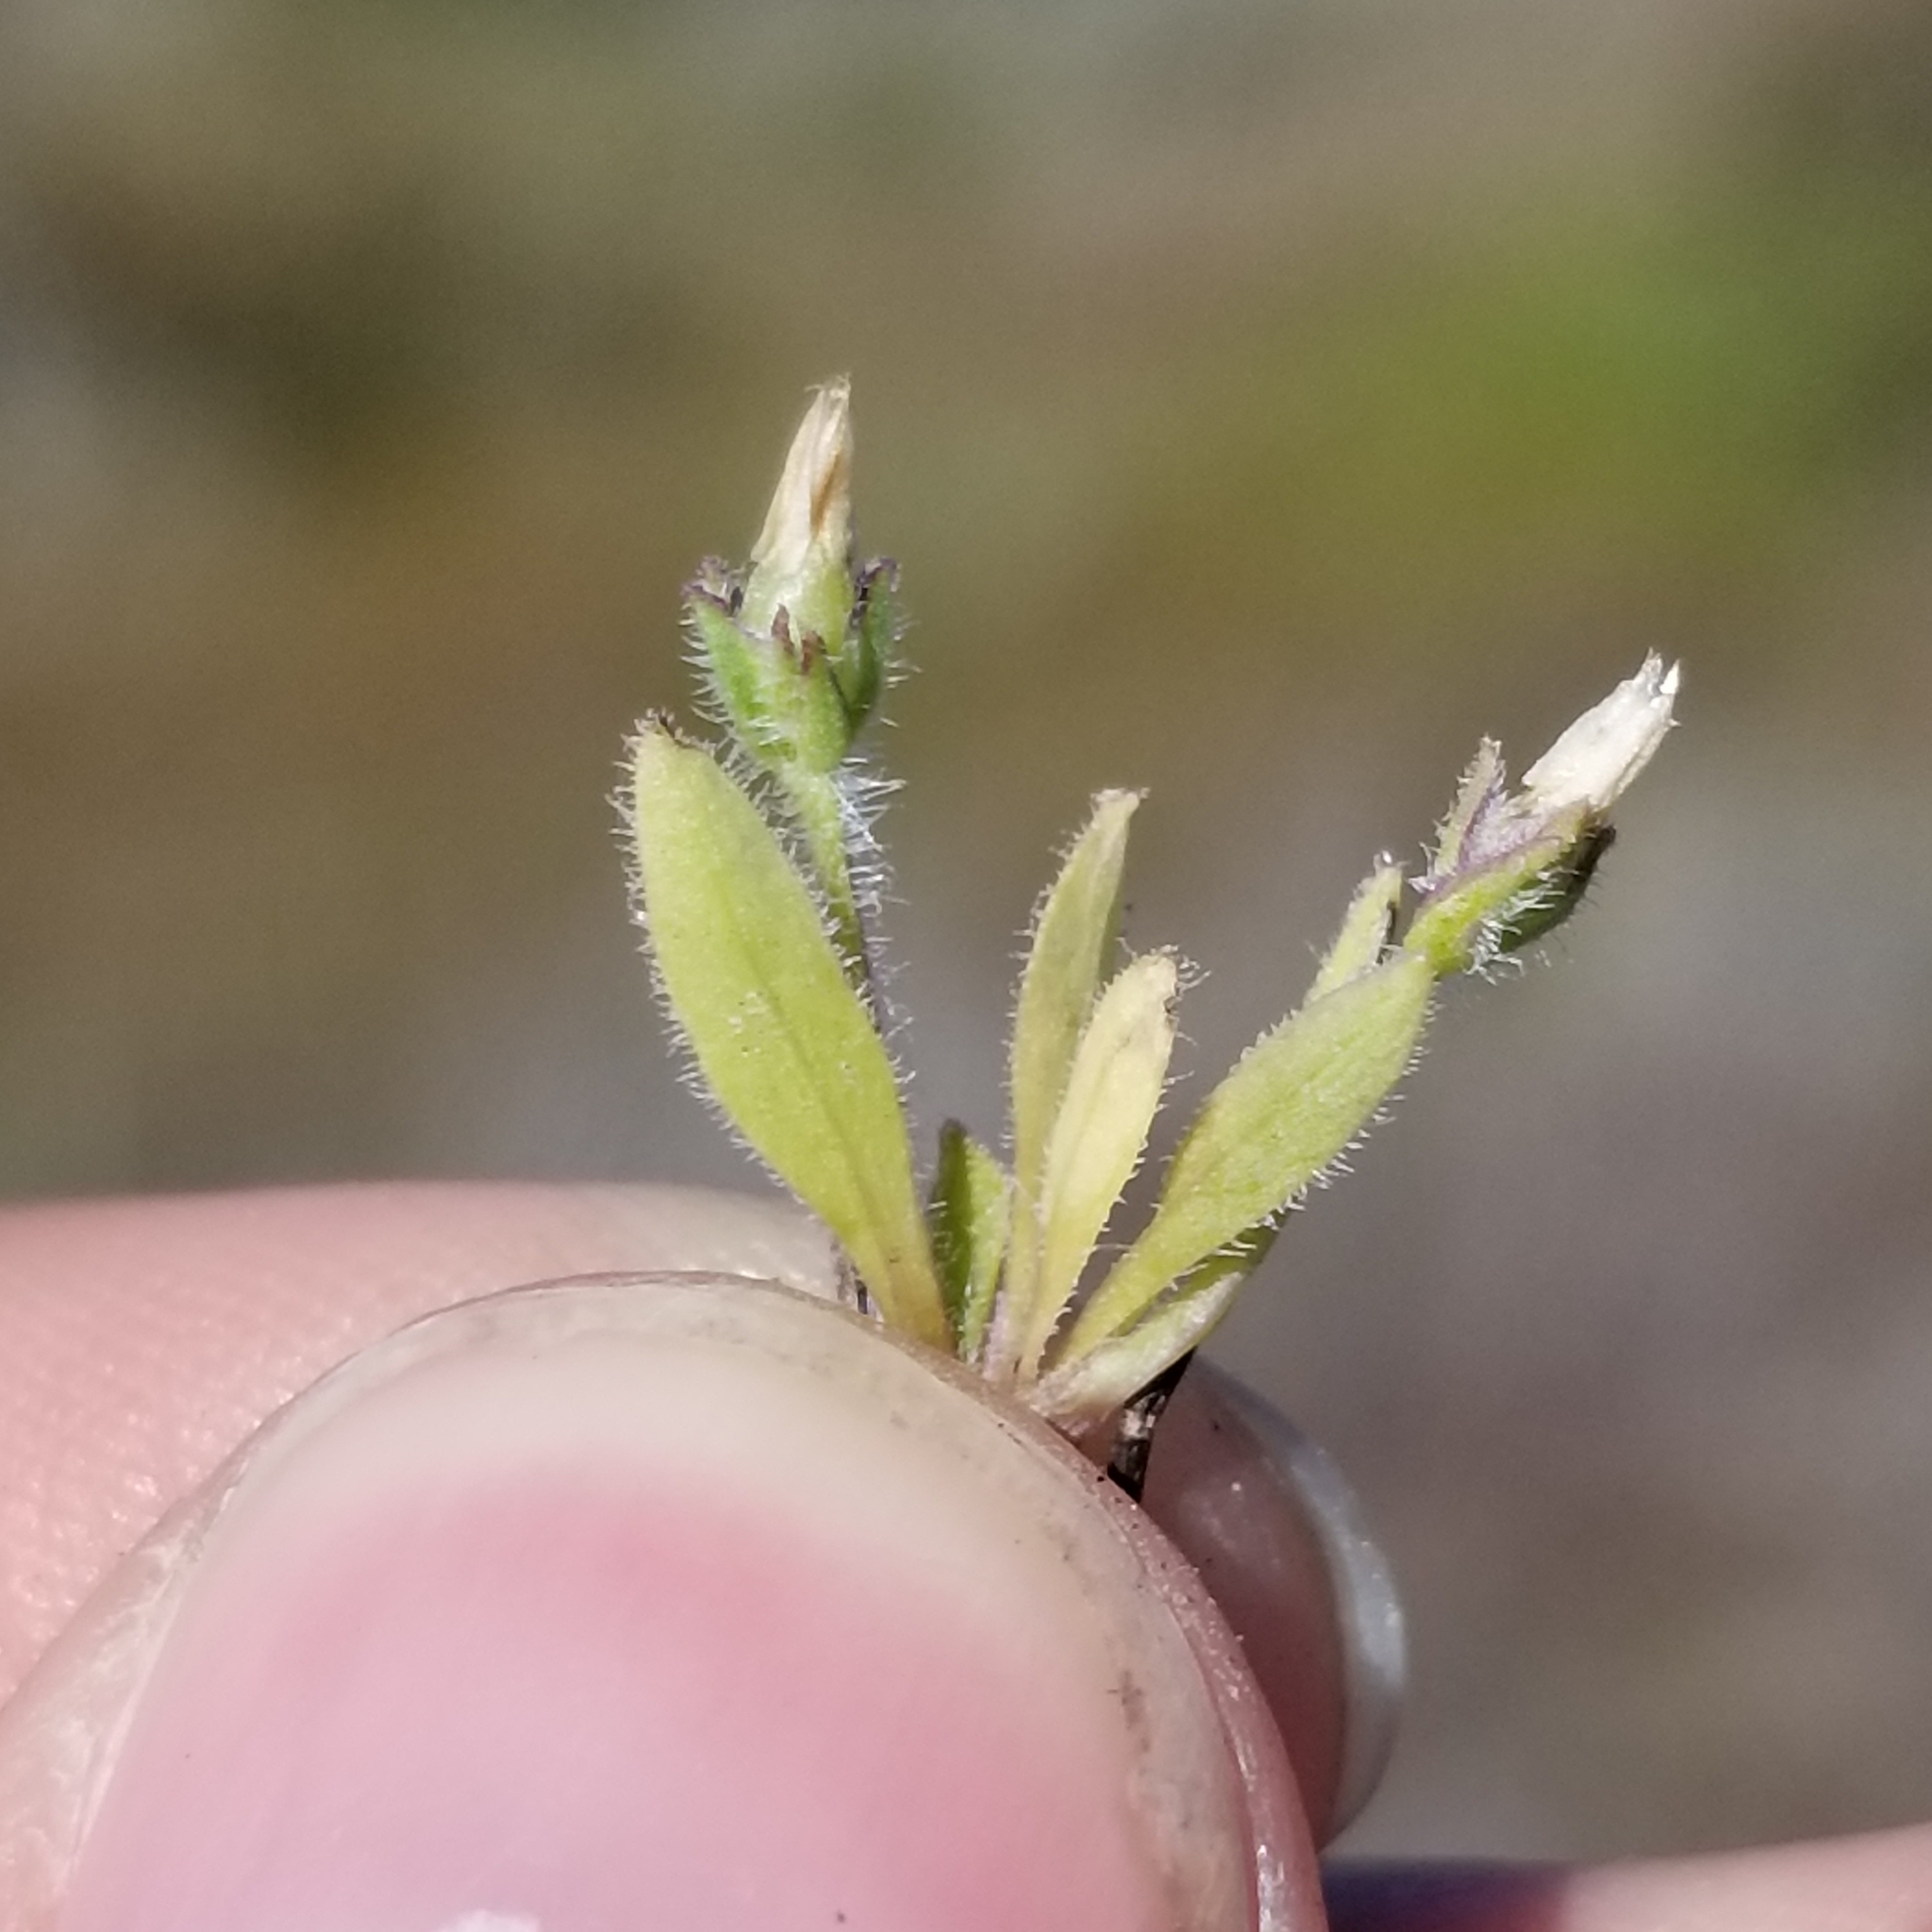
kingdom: Plantae
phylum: Tracheophyta
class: Magnoliopsida
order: Lamiales
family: Plantaginaceae
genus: Plantago
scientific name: Plantago rhodosperma
